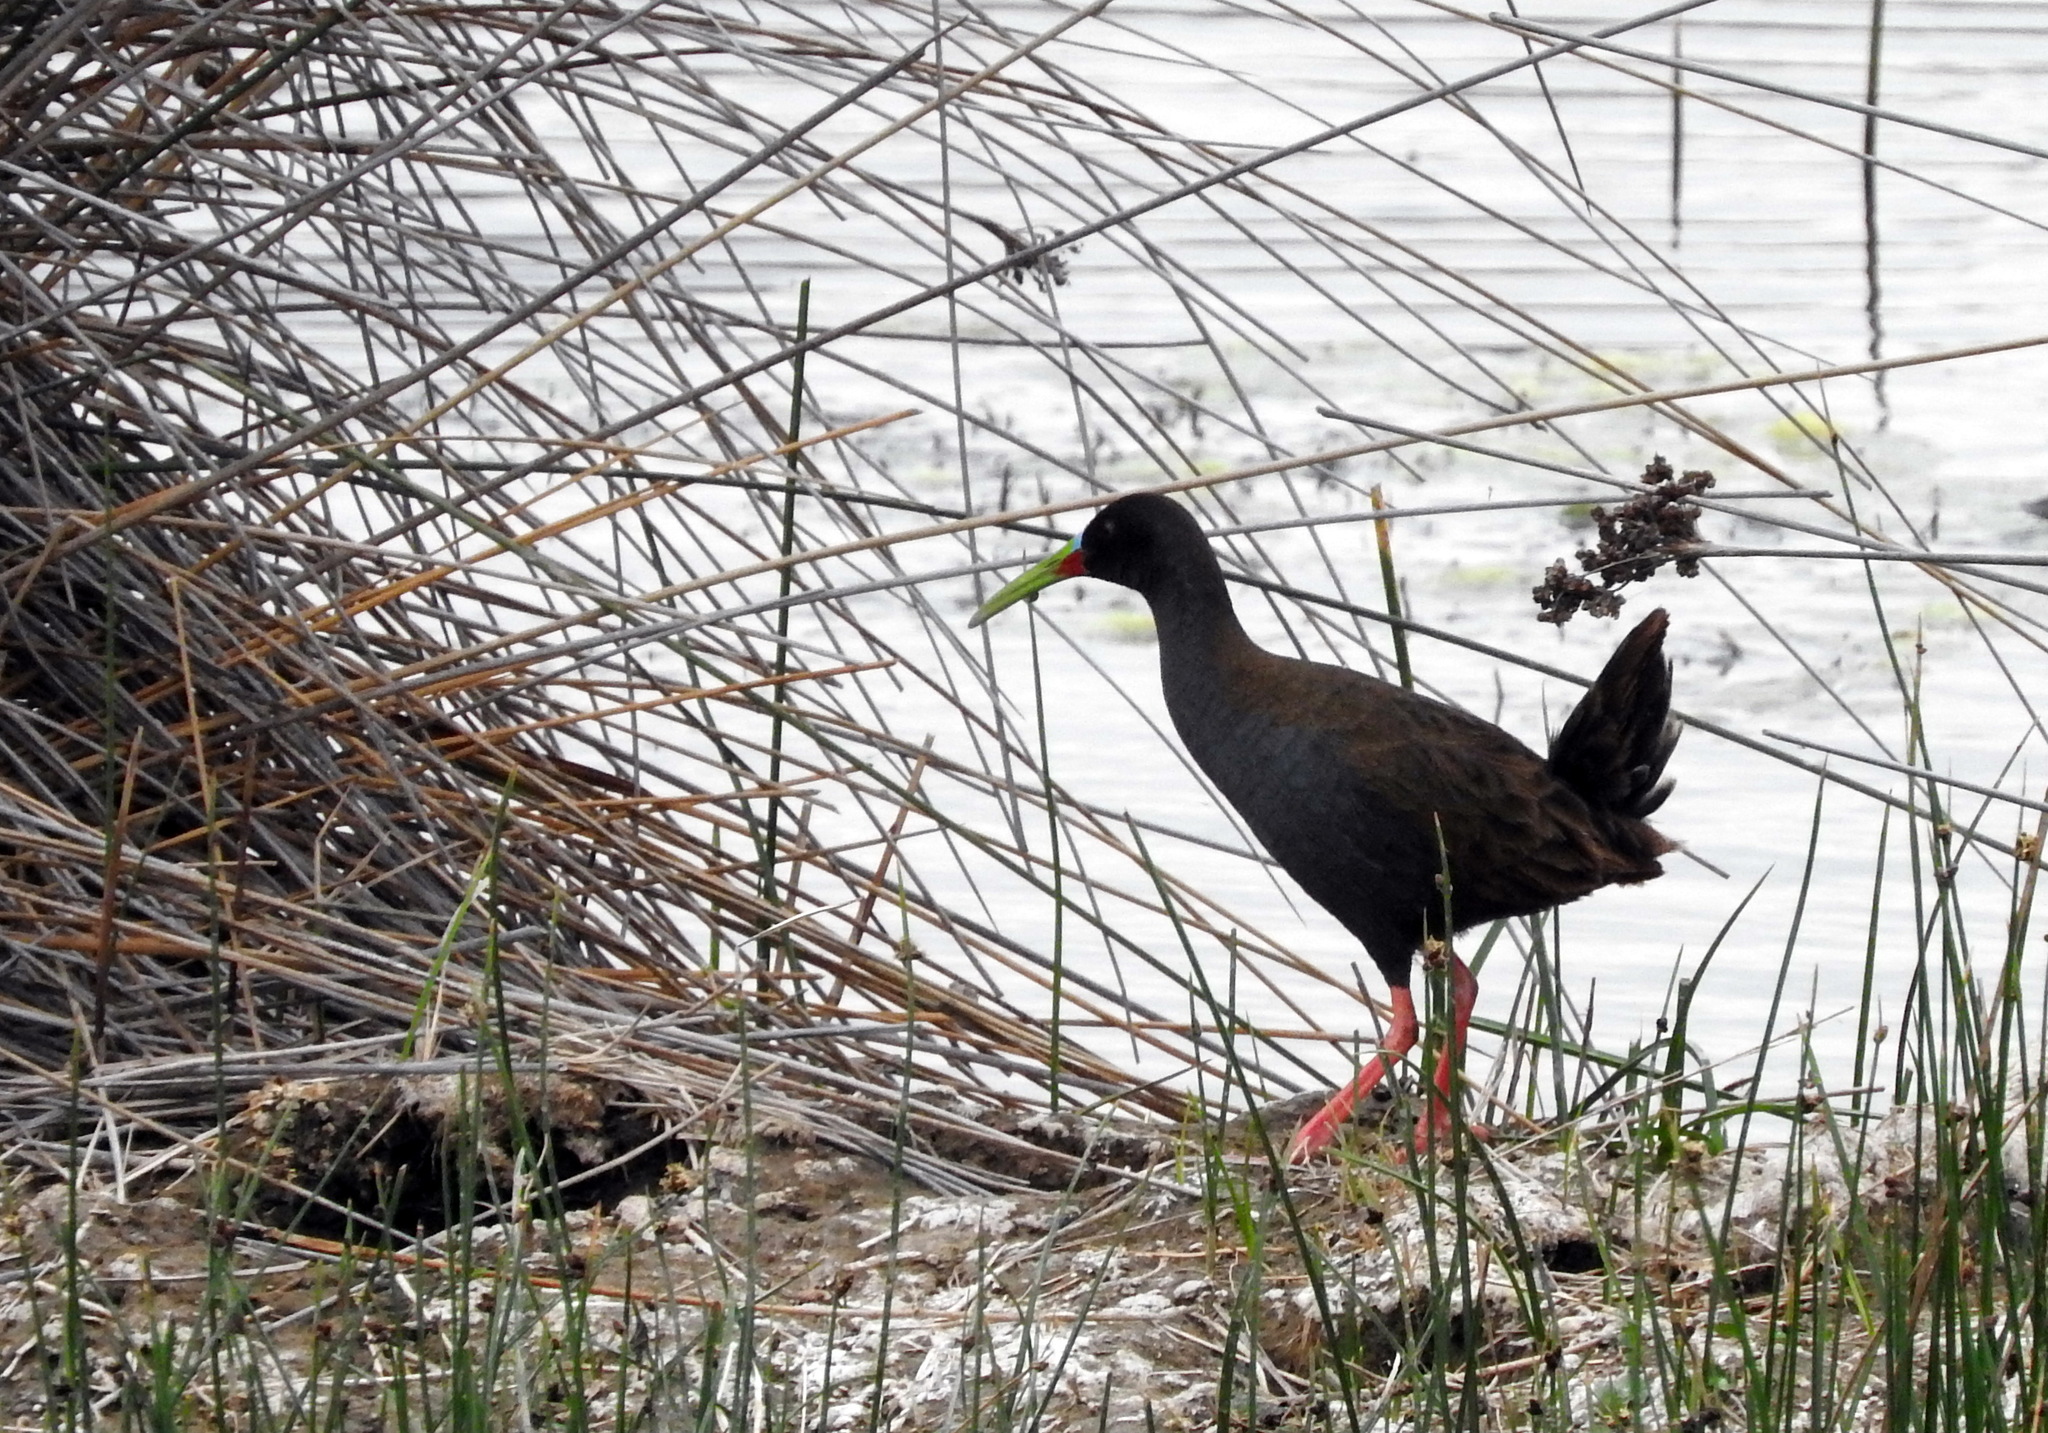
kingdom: Animalia
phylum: Chordata
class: Aves
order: Gruiformes
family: Rallidae
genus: Pardirallus
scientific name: Pardirallus sanguinolentus
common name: Plumbeous rail
